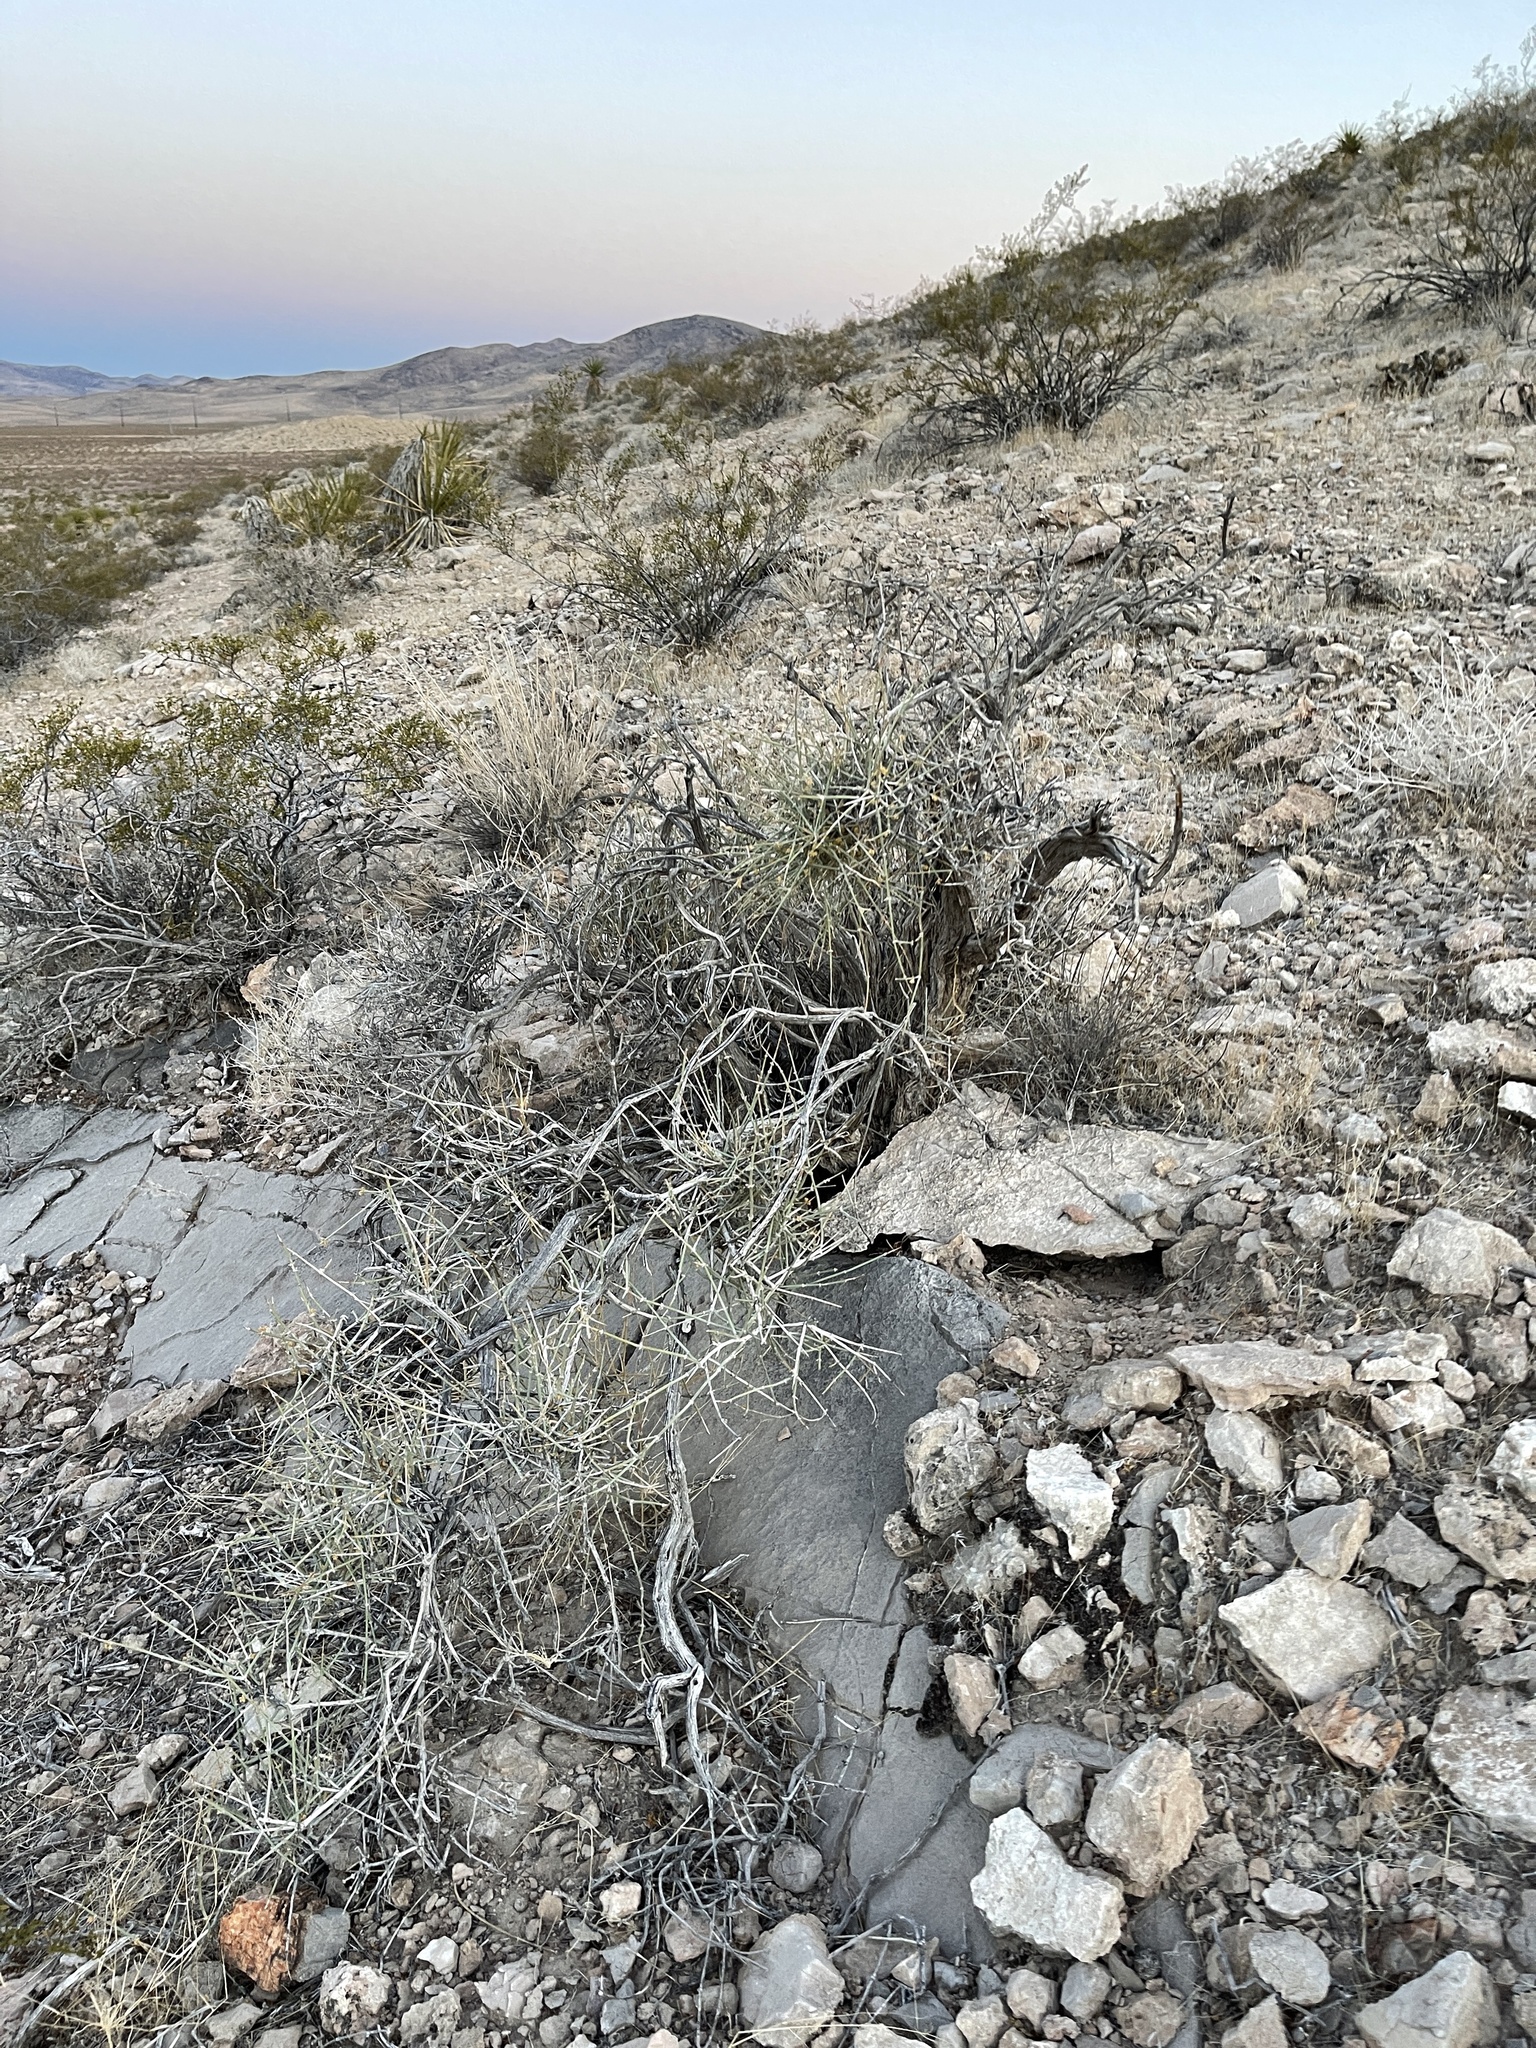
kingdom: Plantae
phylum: Tracheophyta
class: Magnoliopsida
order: Caryophyllales
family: Cactaceae
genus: Cylindropuntia
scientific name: Cylindropuntia ramosissima
